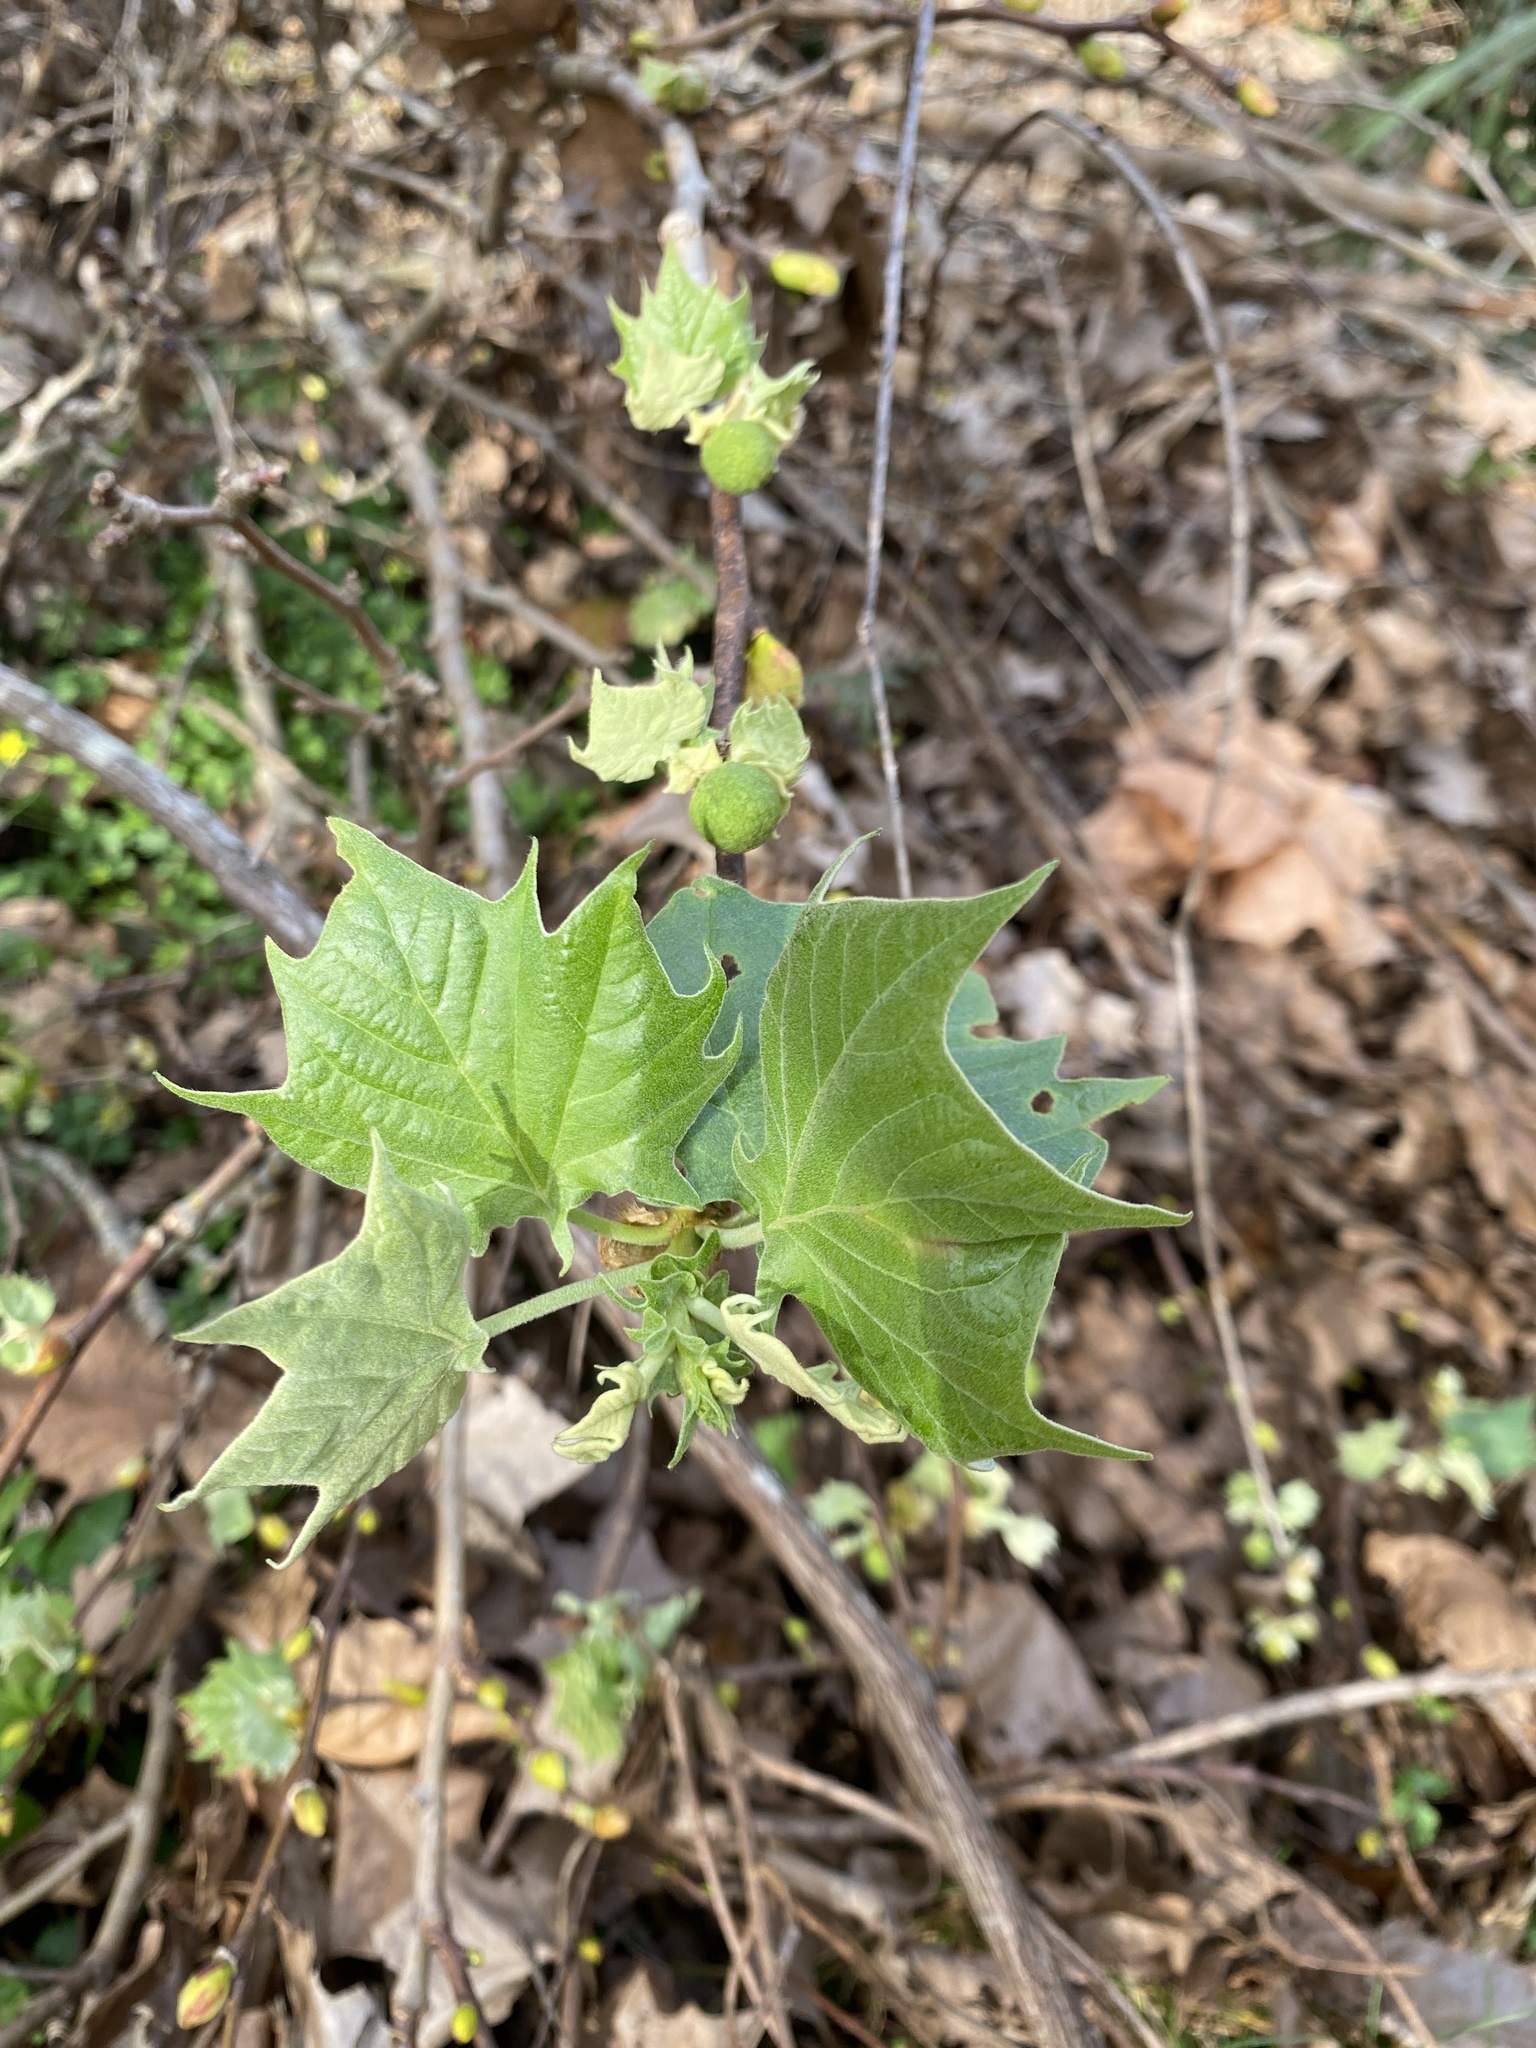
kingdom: Plantae
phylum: Tracheophyta
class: Magnoliopsida
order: Proteales
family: Platanaceae
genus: Platanus
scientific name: Platanus occidentalis
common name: American sycamore
